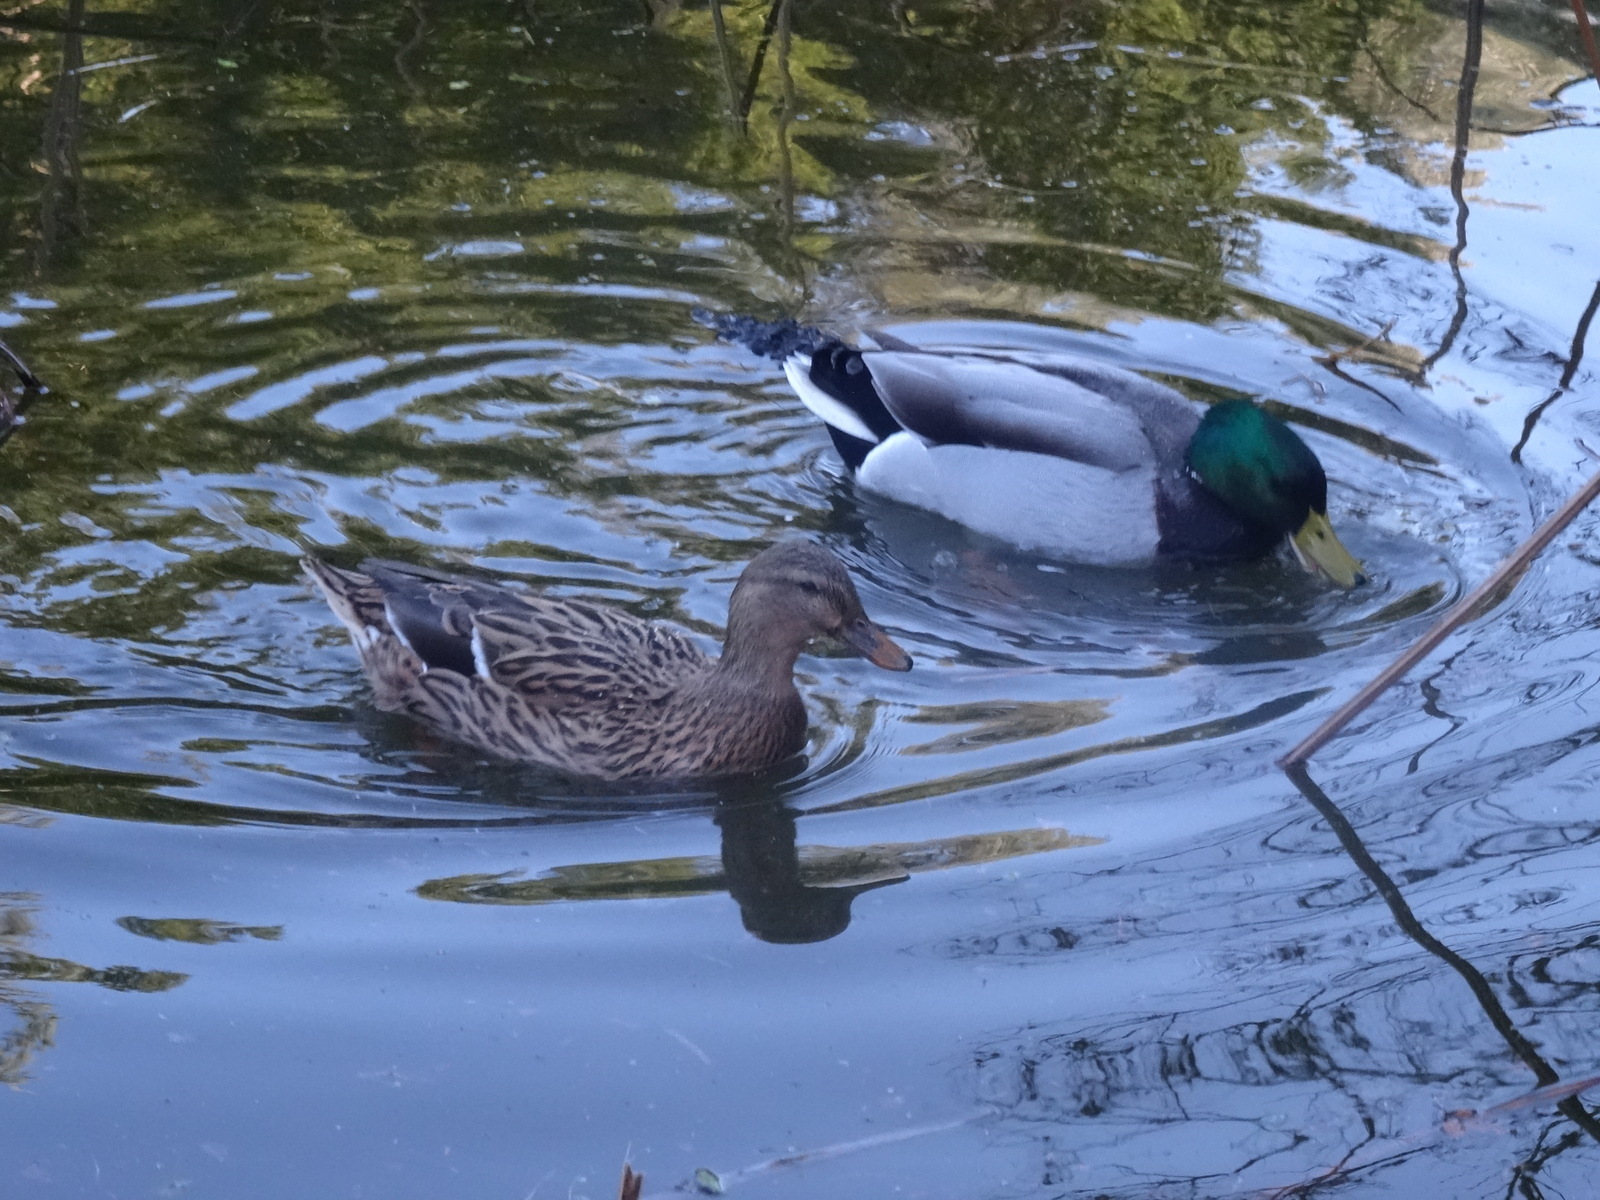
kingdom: Animalia
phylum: Chordata
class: Aves
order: Anseriformes
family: Anatidae
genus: Anas
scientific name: Anas platyrhynchos
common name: Mallard
